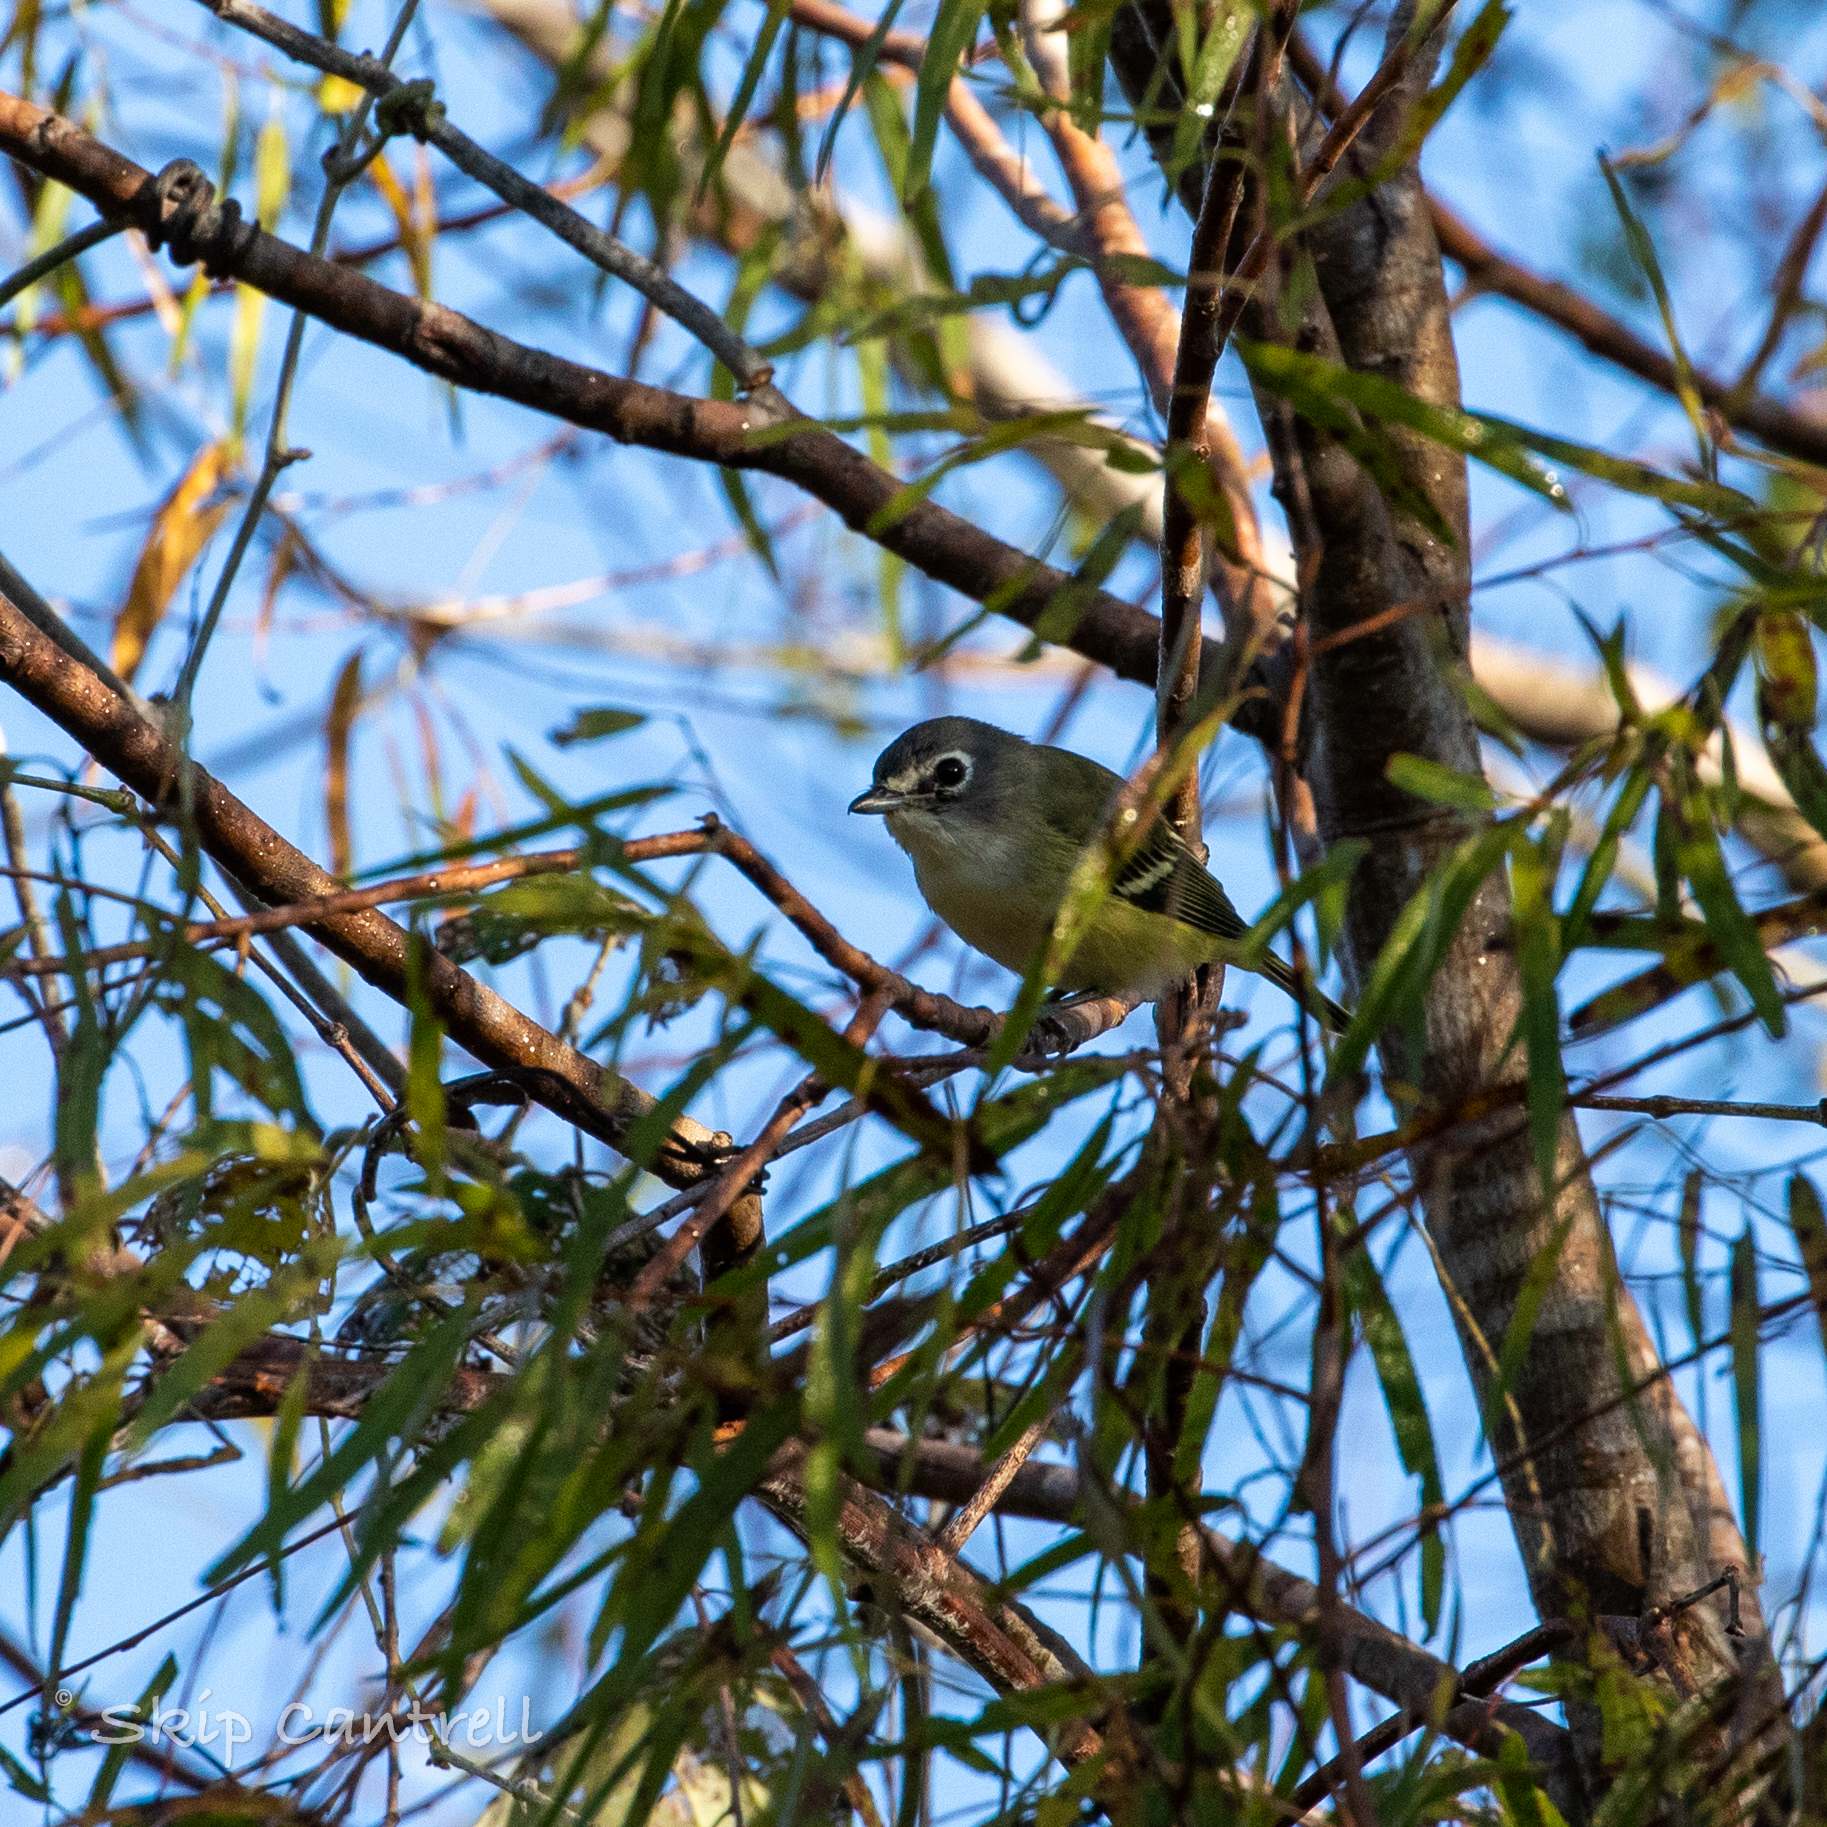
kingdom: Animalia
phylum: Chordata
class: Aves
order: Passeriformes
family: Vireonidae
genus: Vireo
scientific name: Vireo solitarius
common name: Blue-headed vireo
